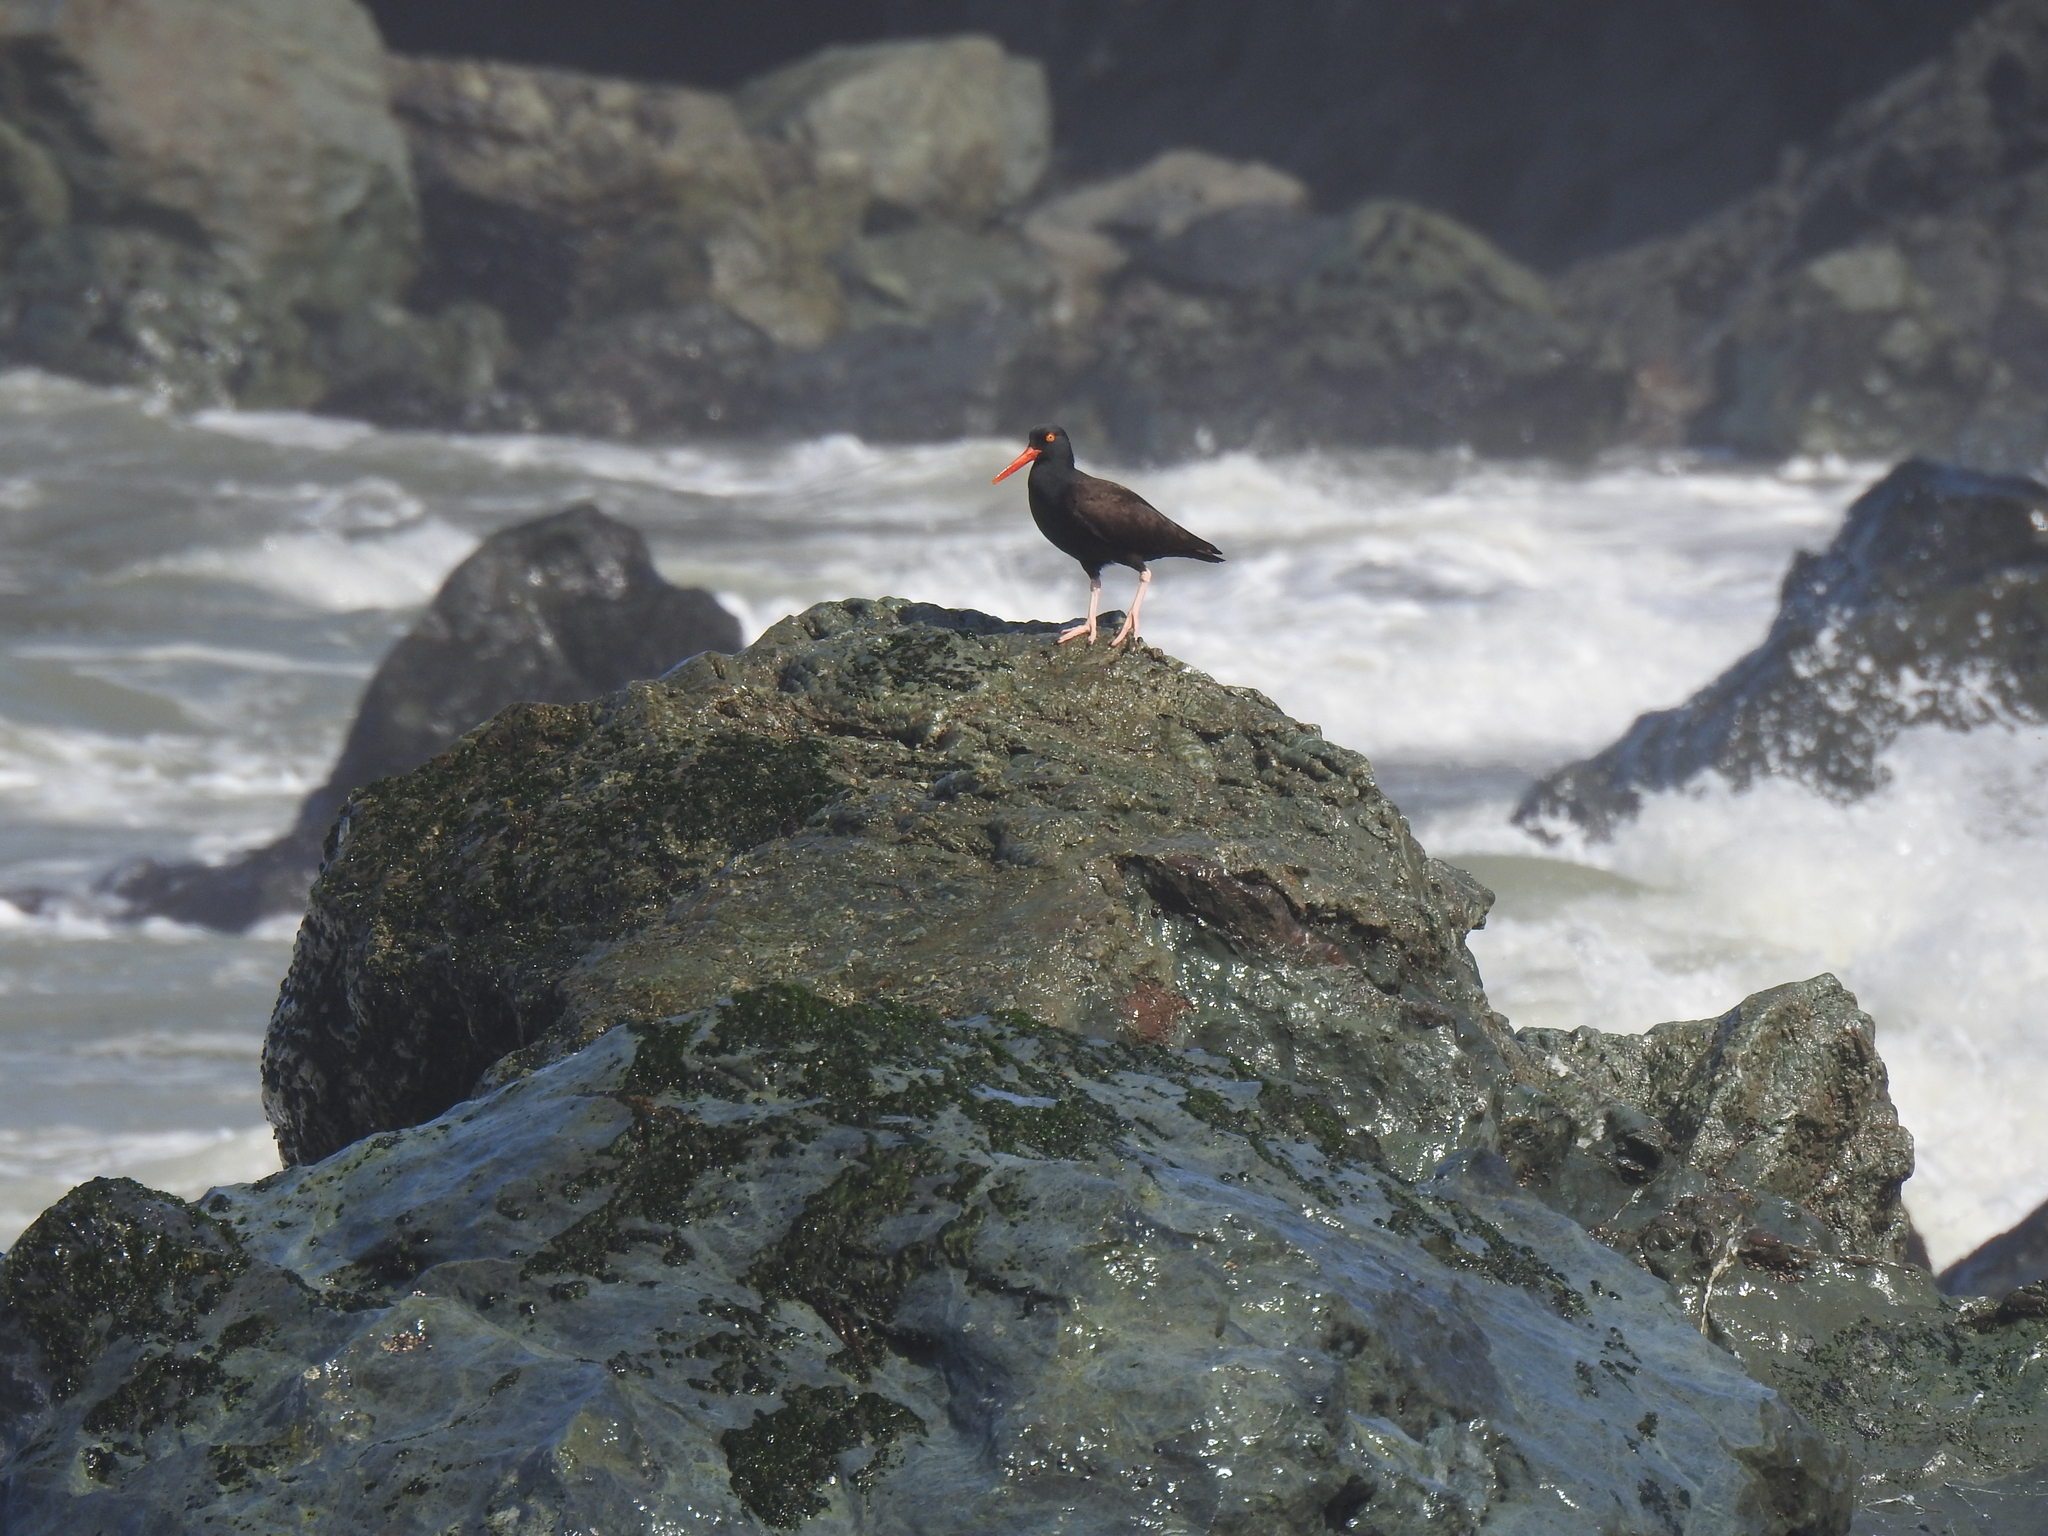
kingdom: Animalia
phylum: Chordata
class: Aves
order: Charadriiformes
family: Haematopodidae
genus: Haematopus
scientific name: Haematopus bachmani
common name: Black oystercatcher
